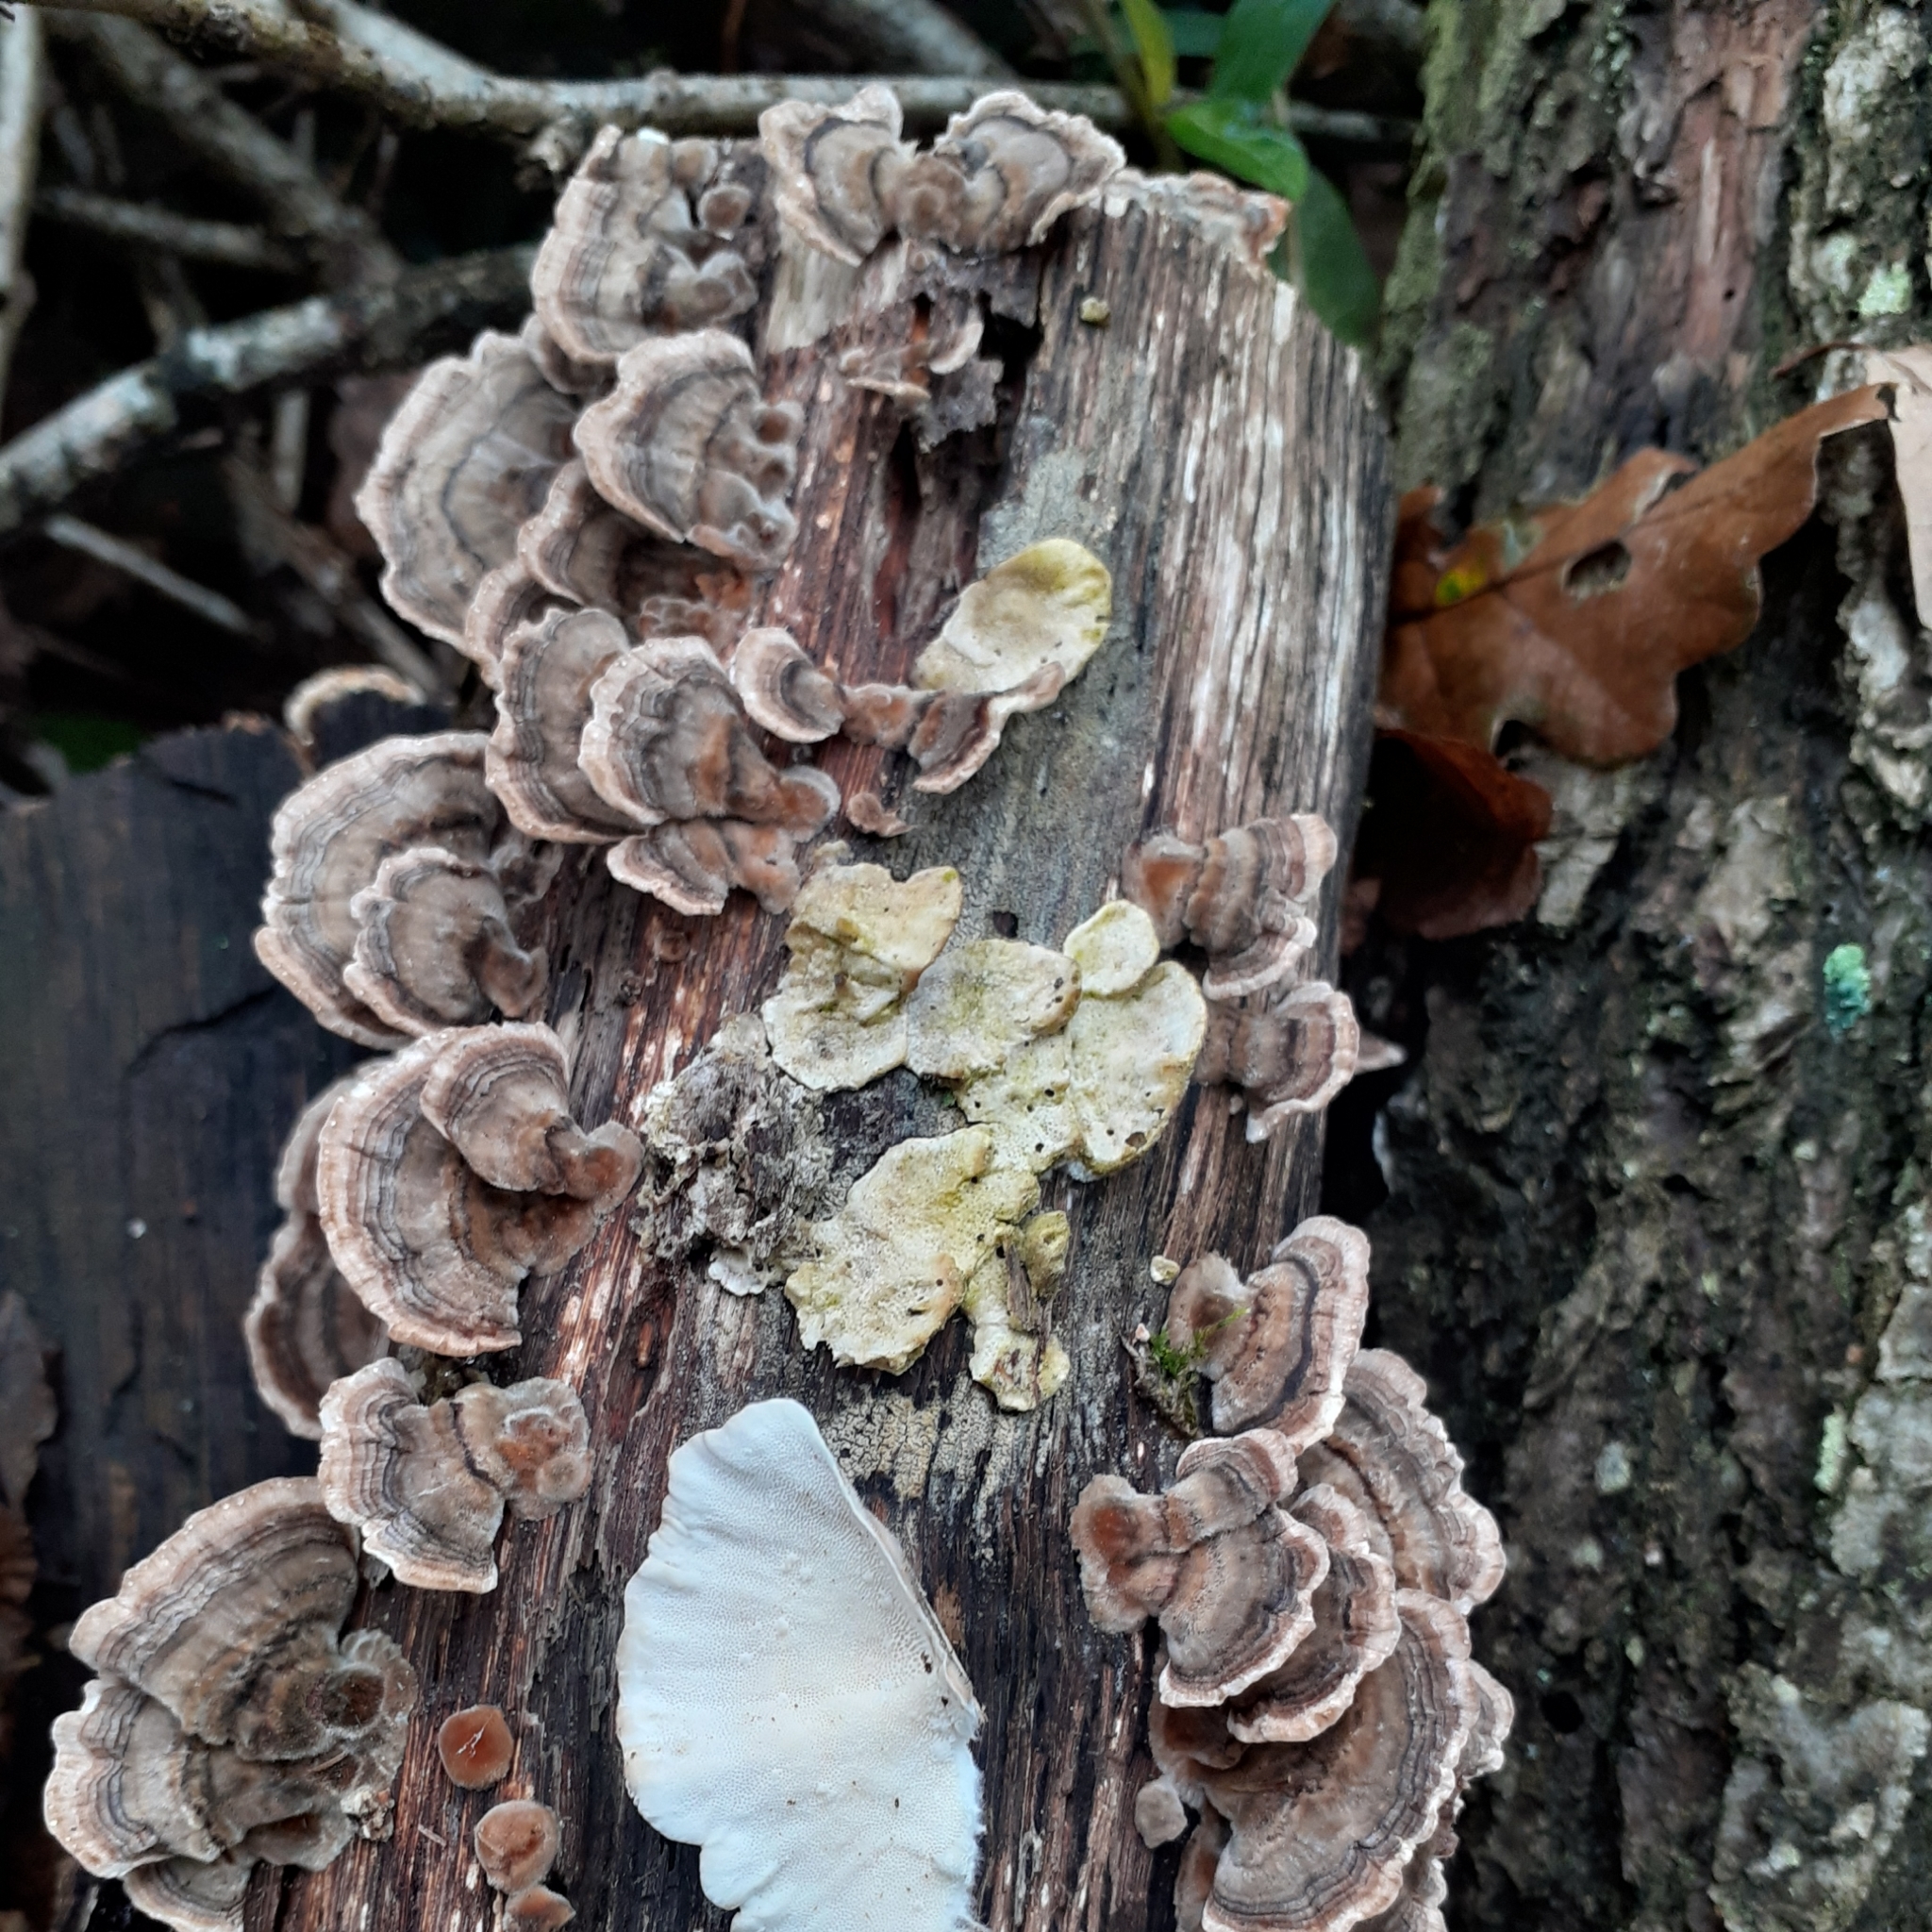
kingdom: Fungi
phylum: Basidiomycota
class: Agaricomycetes
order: Polyporales
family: Polyporaceae
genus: Trametes
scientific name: Trametes versicolor
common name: Turkeytail
